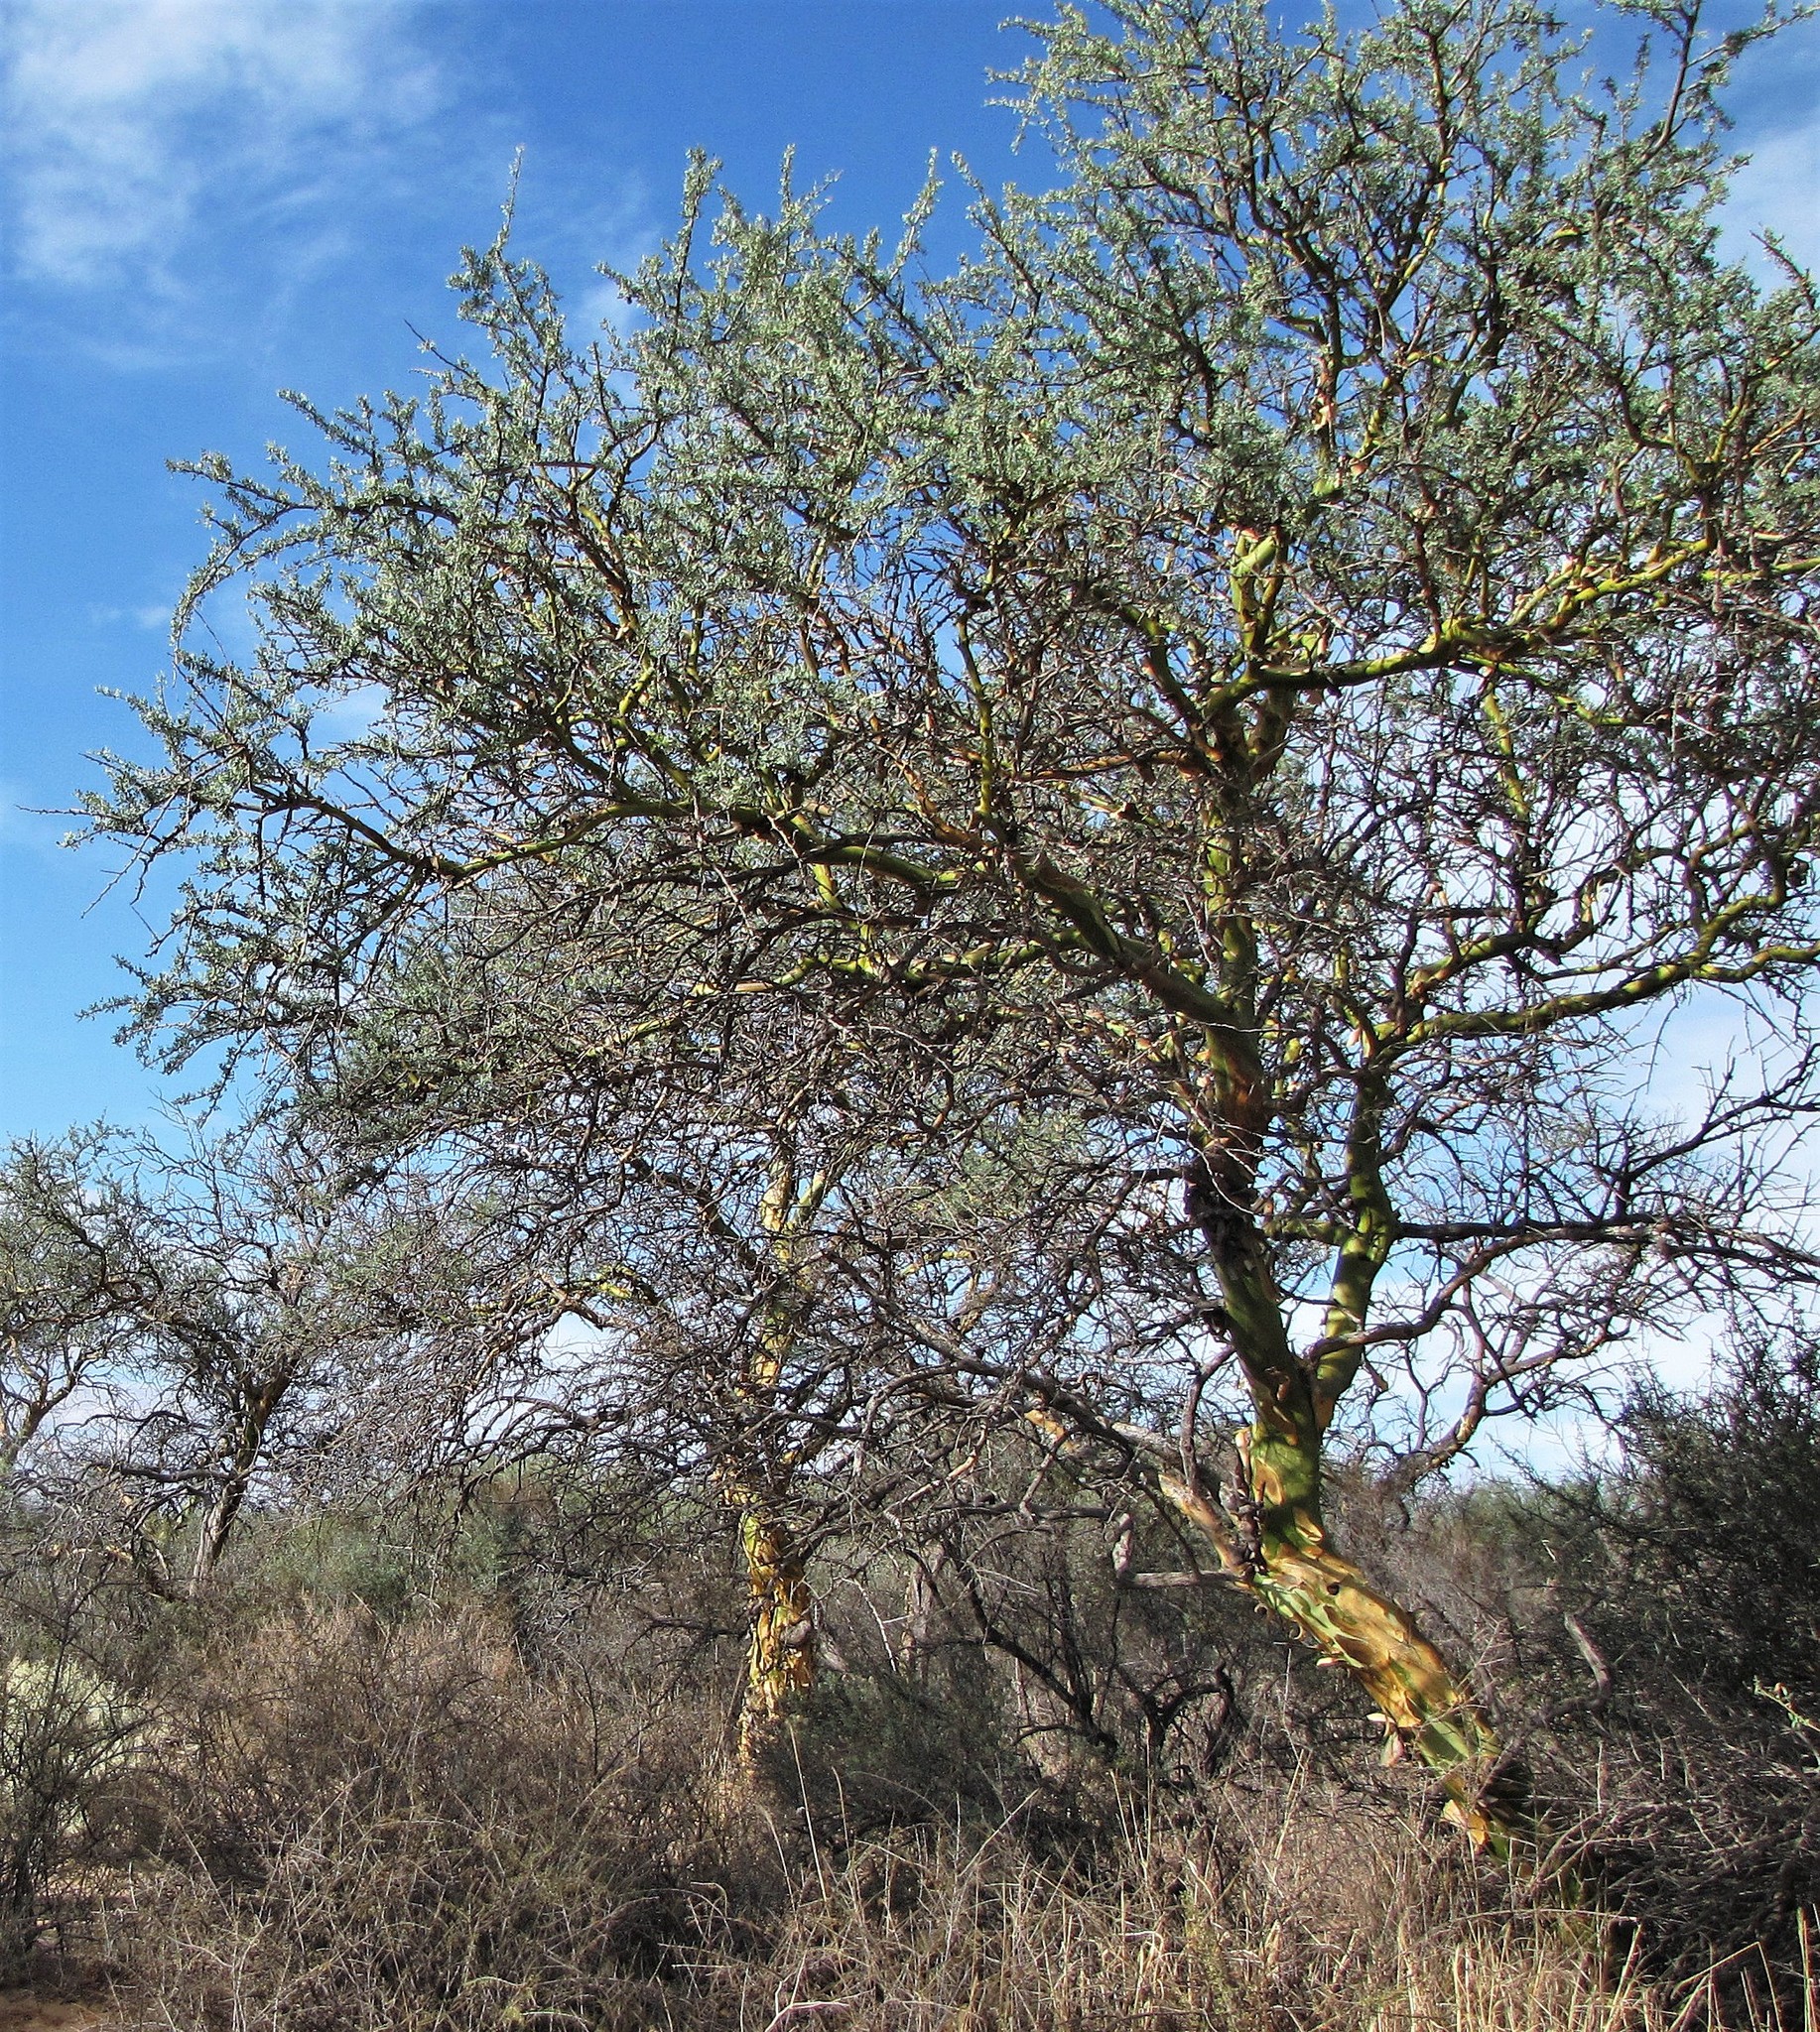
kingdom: Plantae
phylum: Tracheophyta
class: Magnoliopsida
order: Fabales
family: Fabaceae
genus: Geoffroea
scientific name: Geoffroea decorticans
